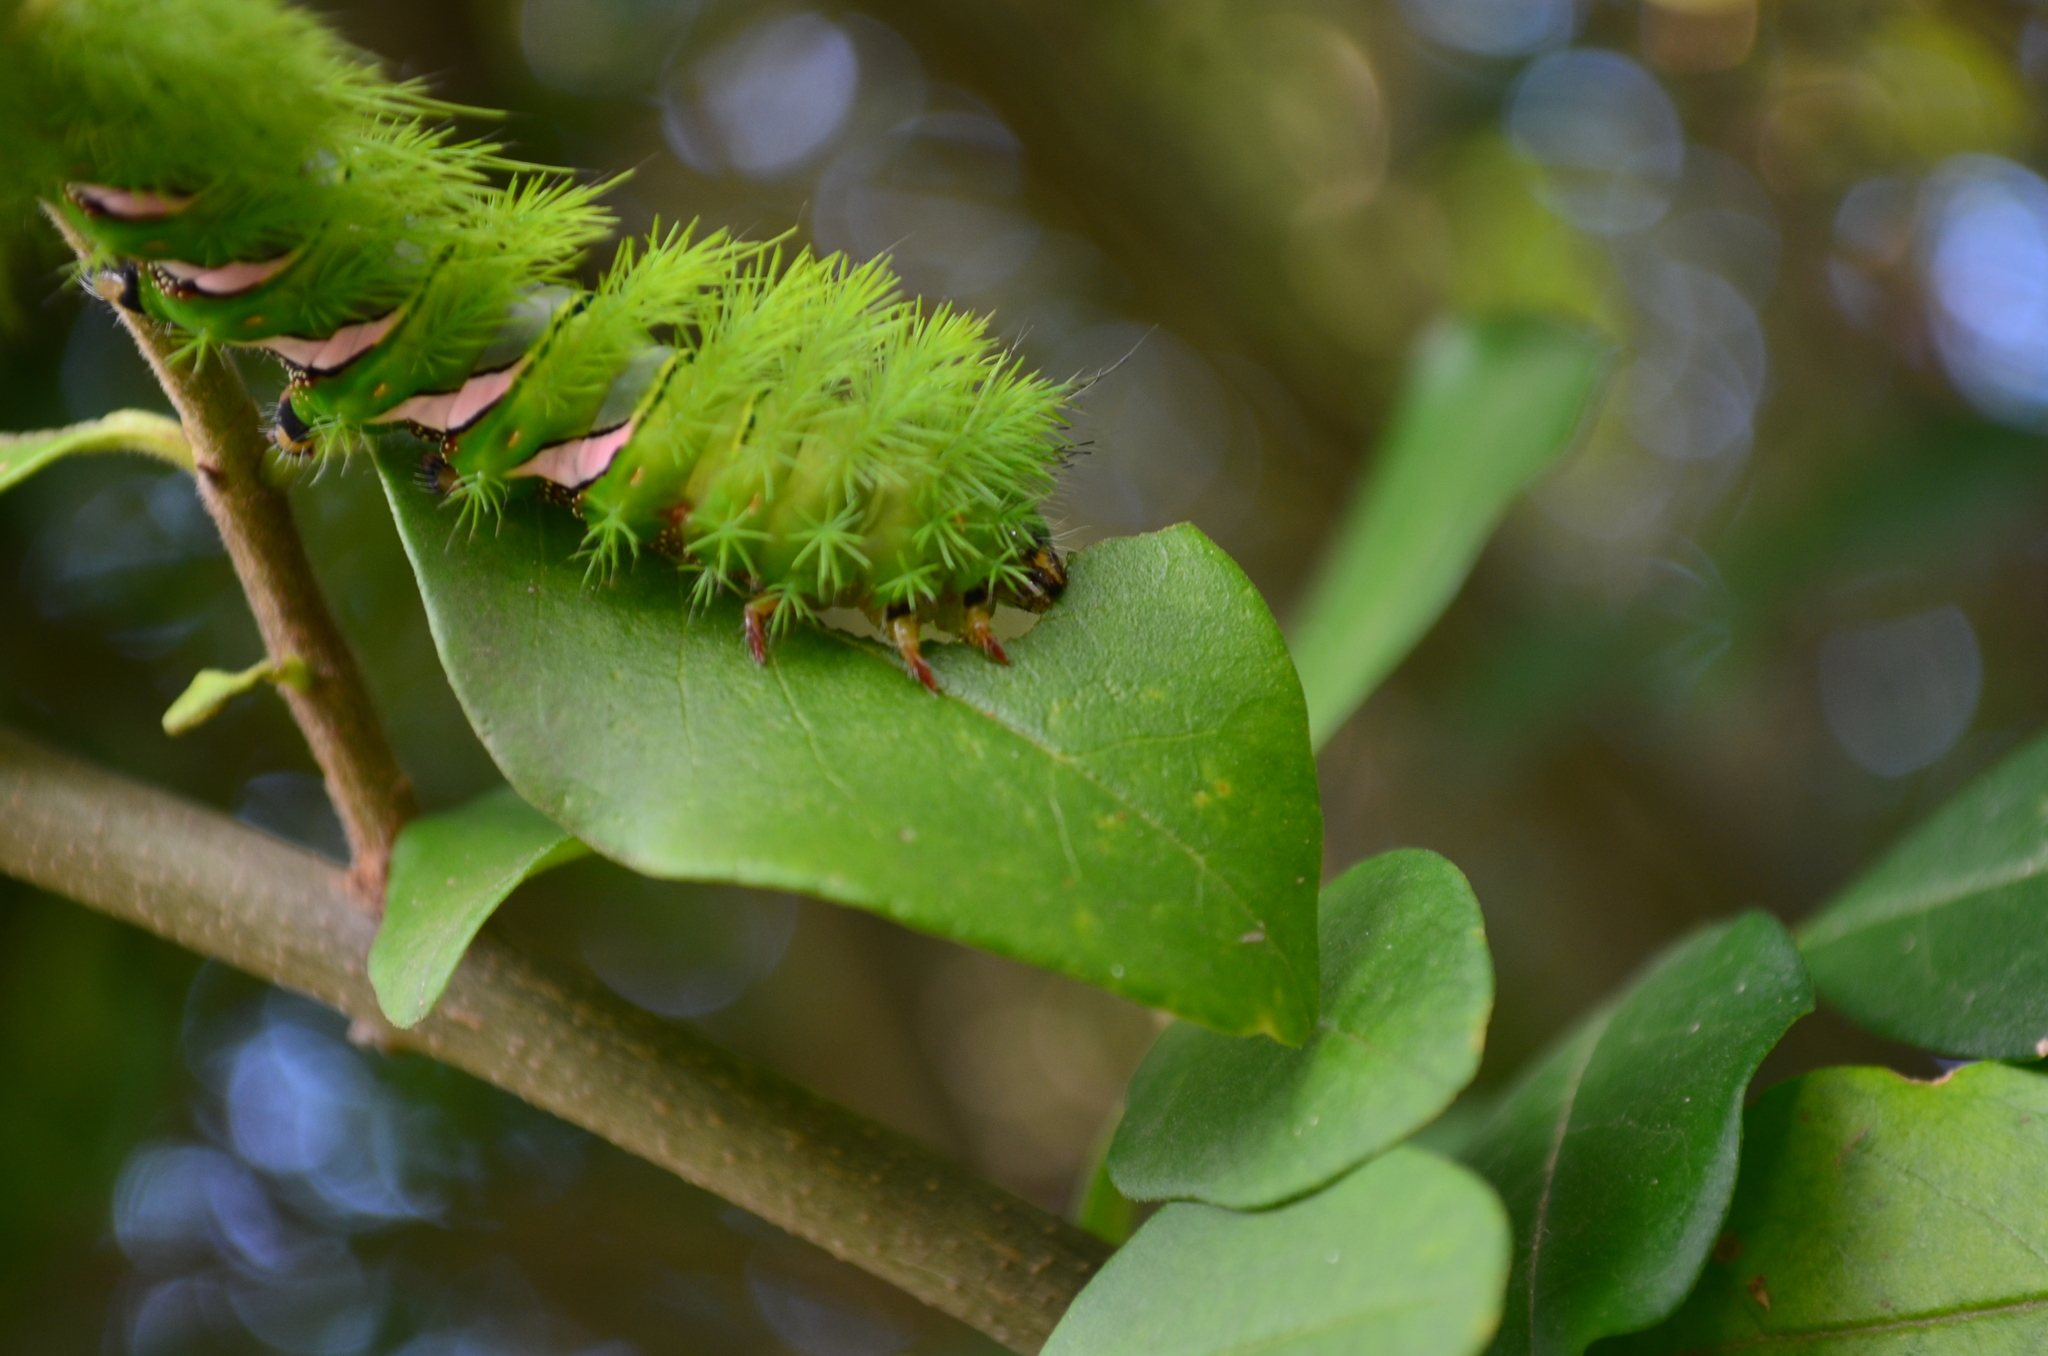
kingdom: Animalia
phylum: Arthropoda
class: Insecta
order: Lepidoptera
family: Saturniidae
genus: Automeris
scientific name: Automeris naranja
